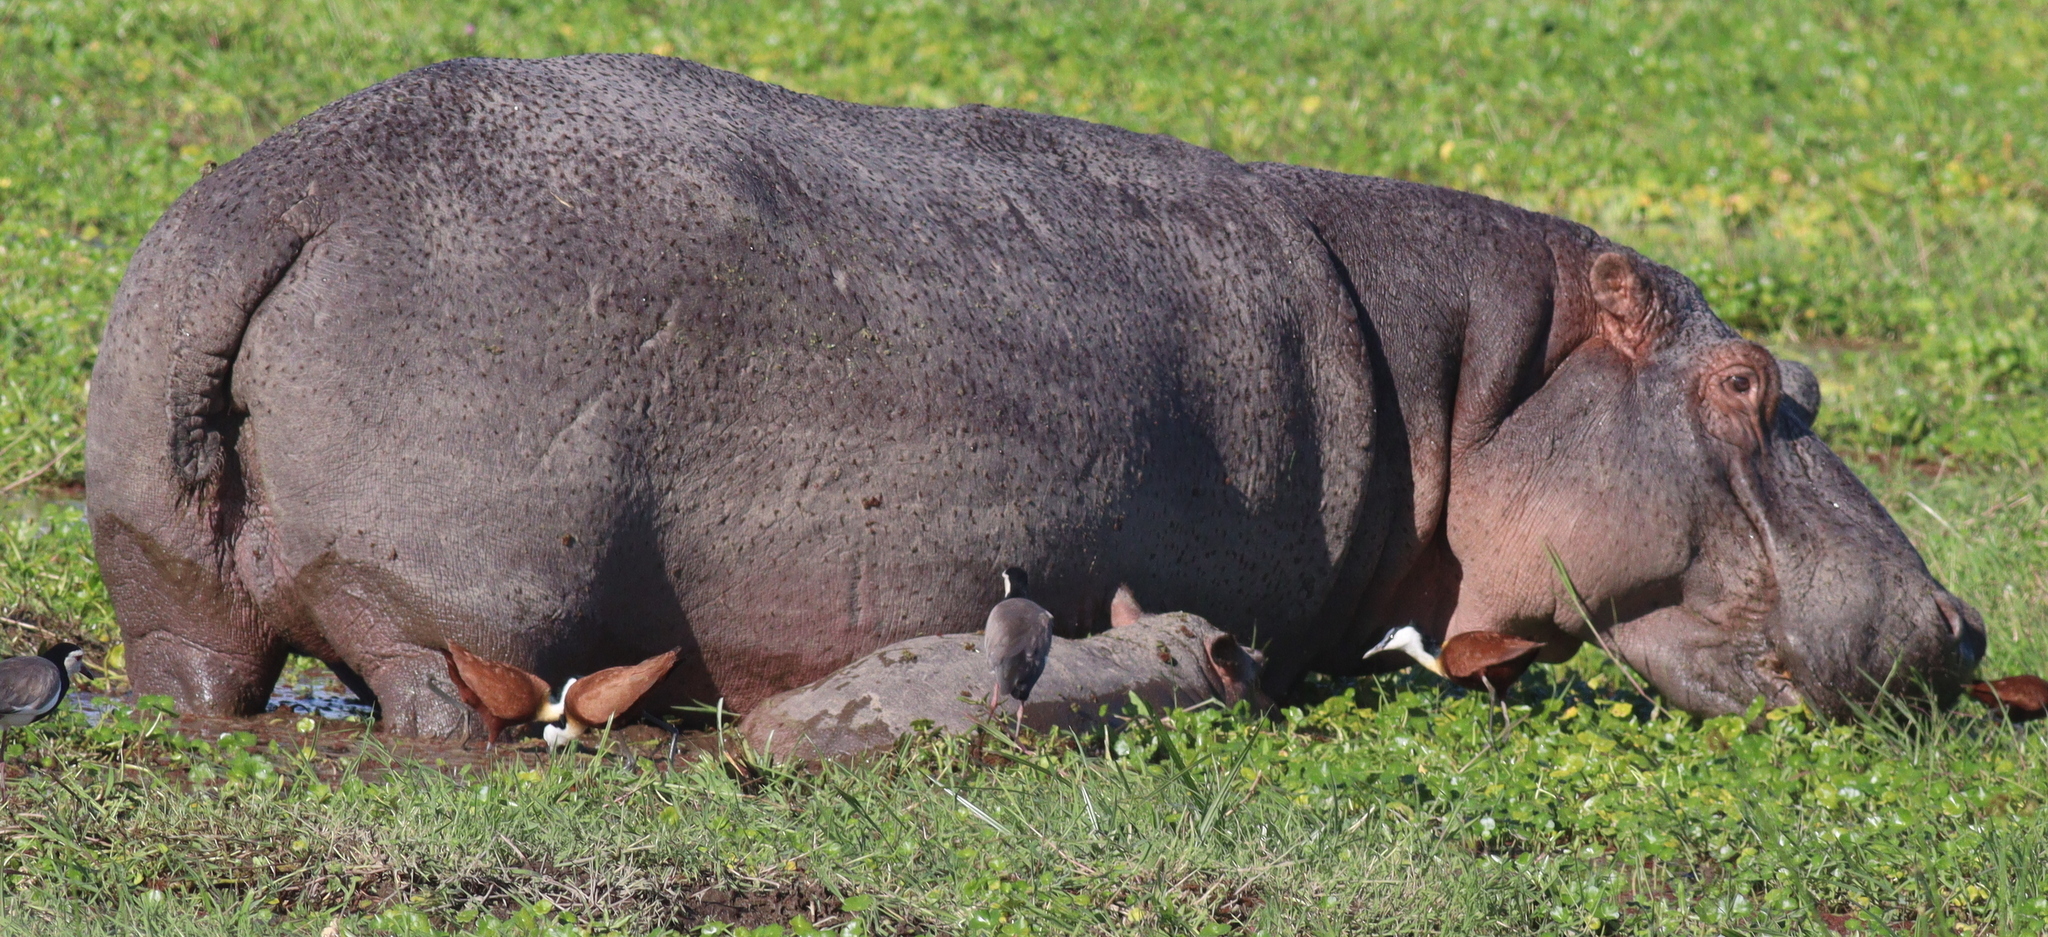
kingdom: Animalia
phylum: Chordata
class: Mammalia
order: Artiodactyla
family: Hippopotamidae
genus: Hippopotamus
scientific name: Hippopotamus amphibius
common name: Common hippopotamus
